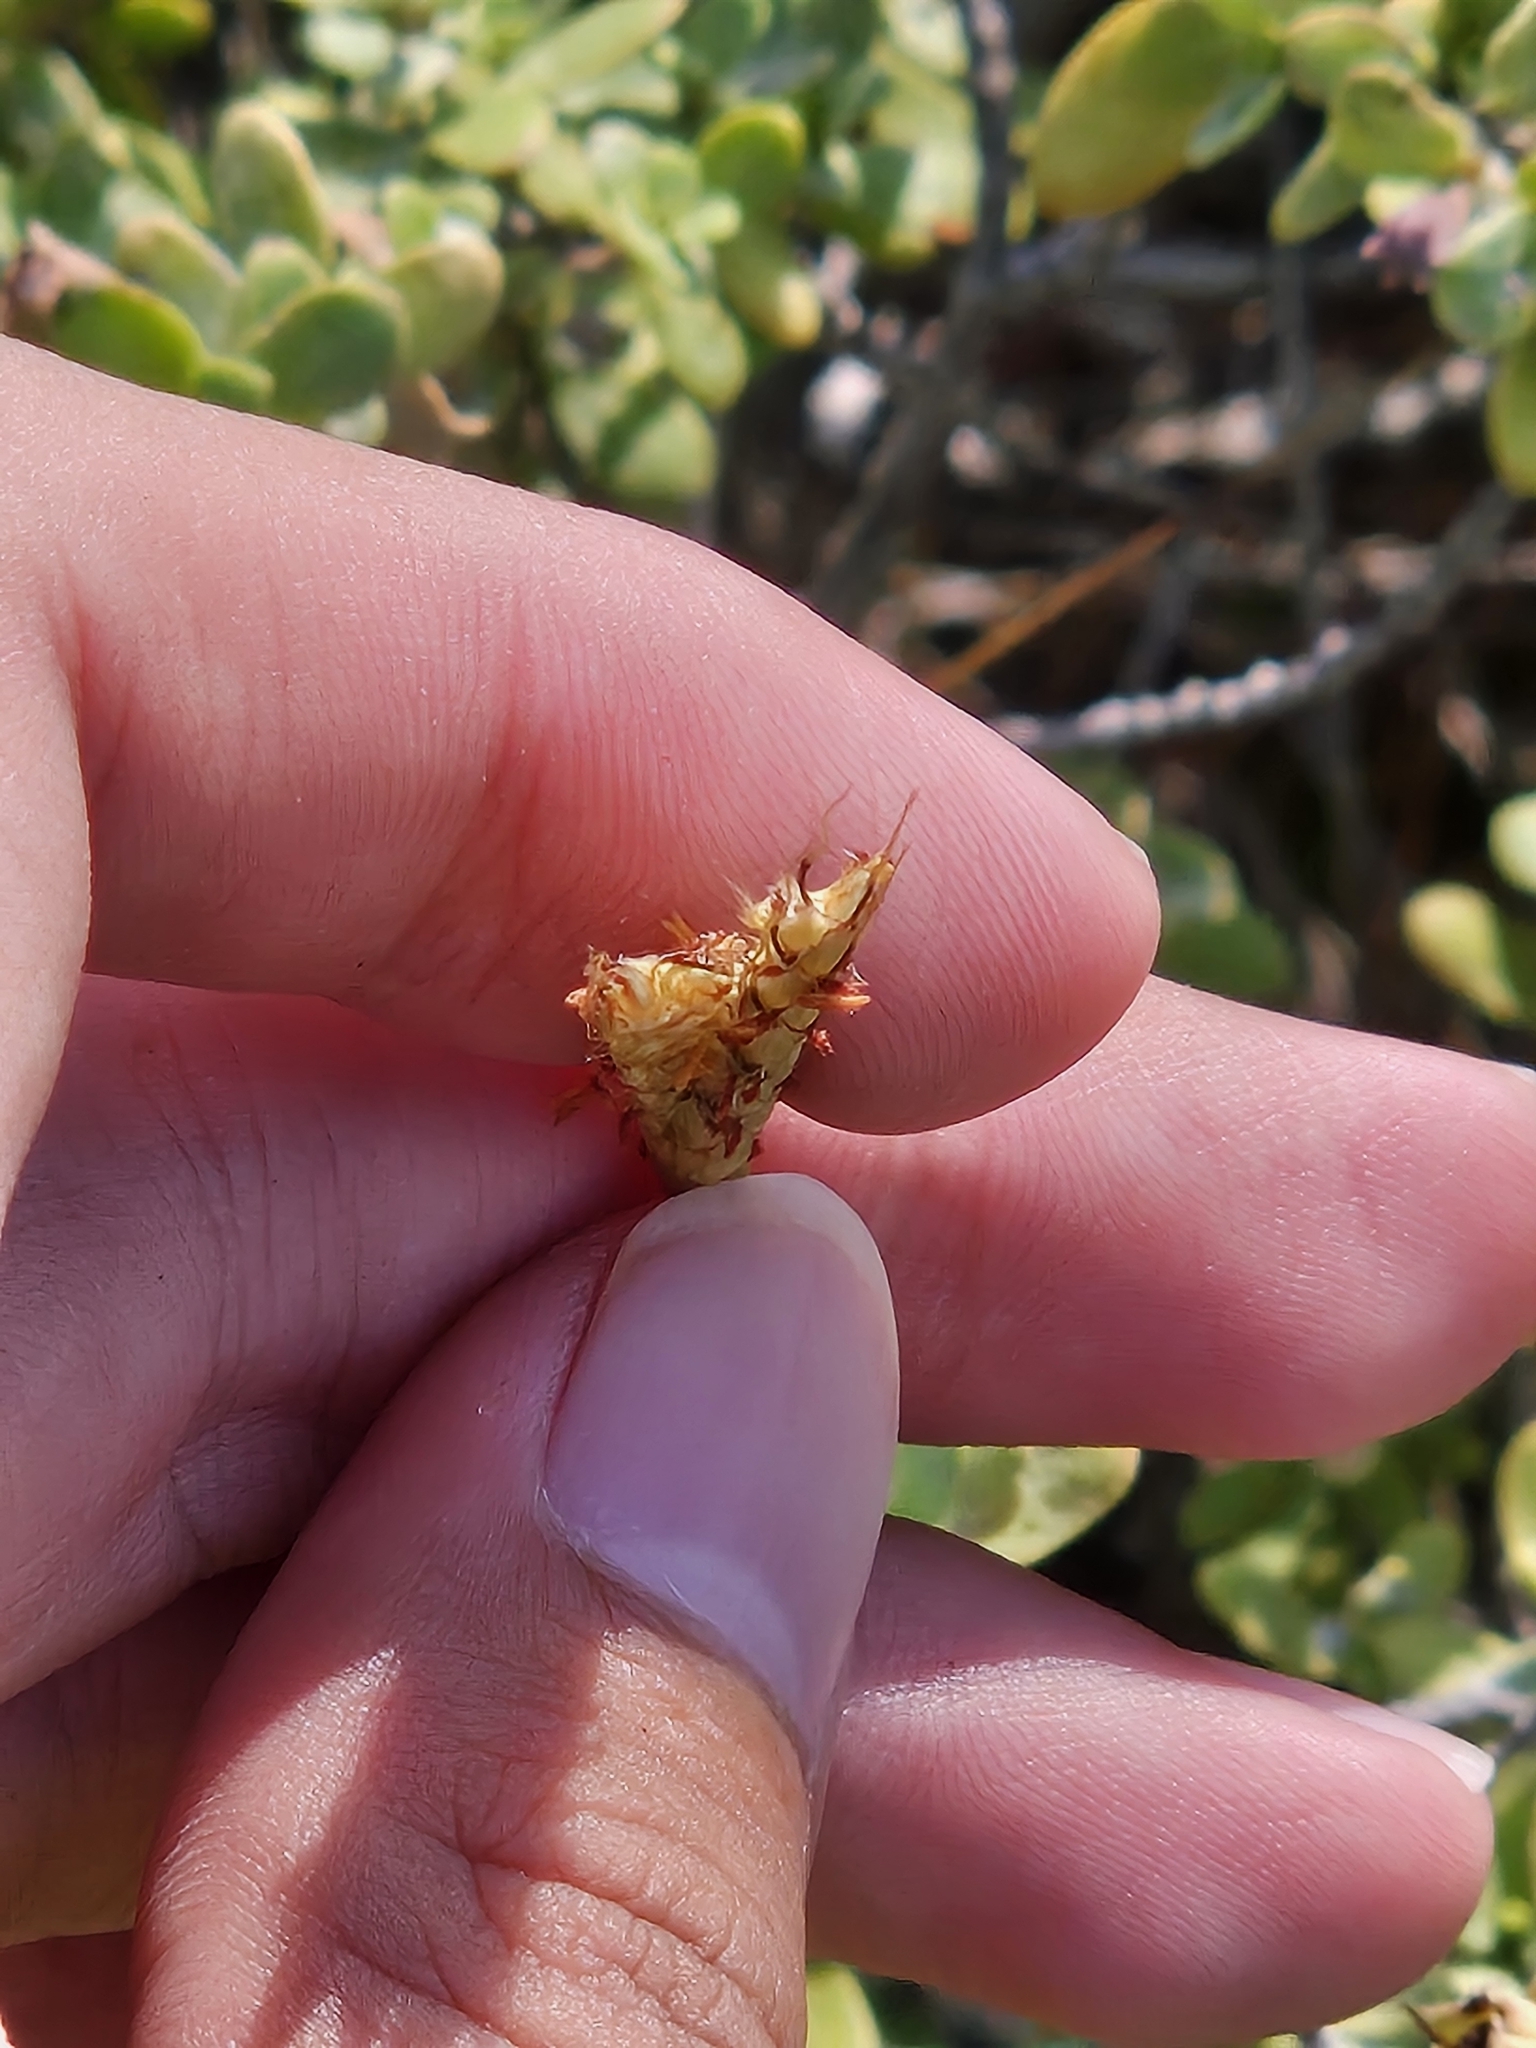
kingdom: Plantae
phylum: Tracheophyta
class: Liliopsida
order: Poales
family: Poaceae
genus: Ischaemum
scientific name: Ischaemum setaceum
